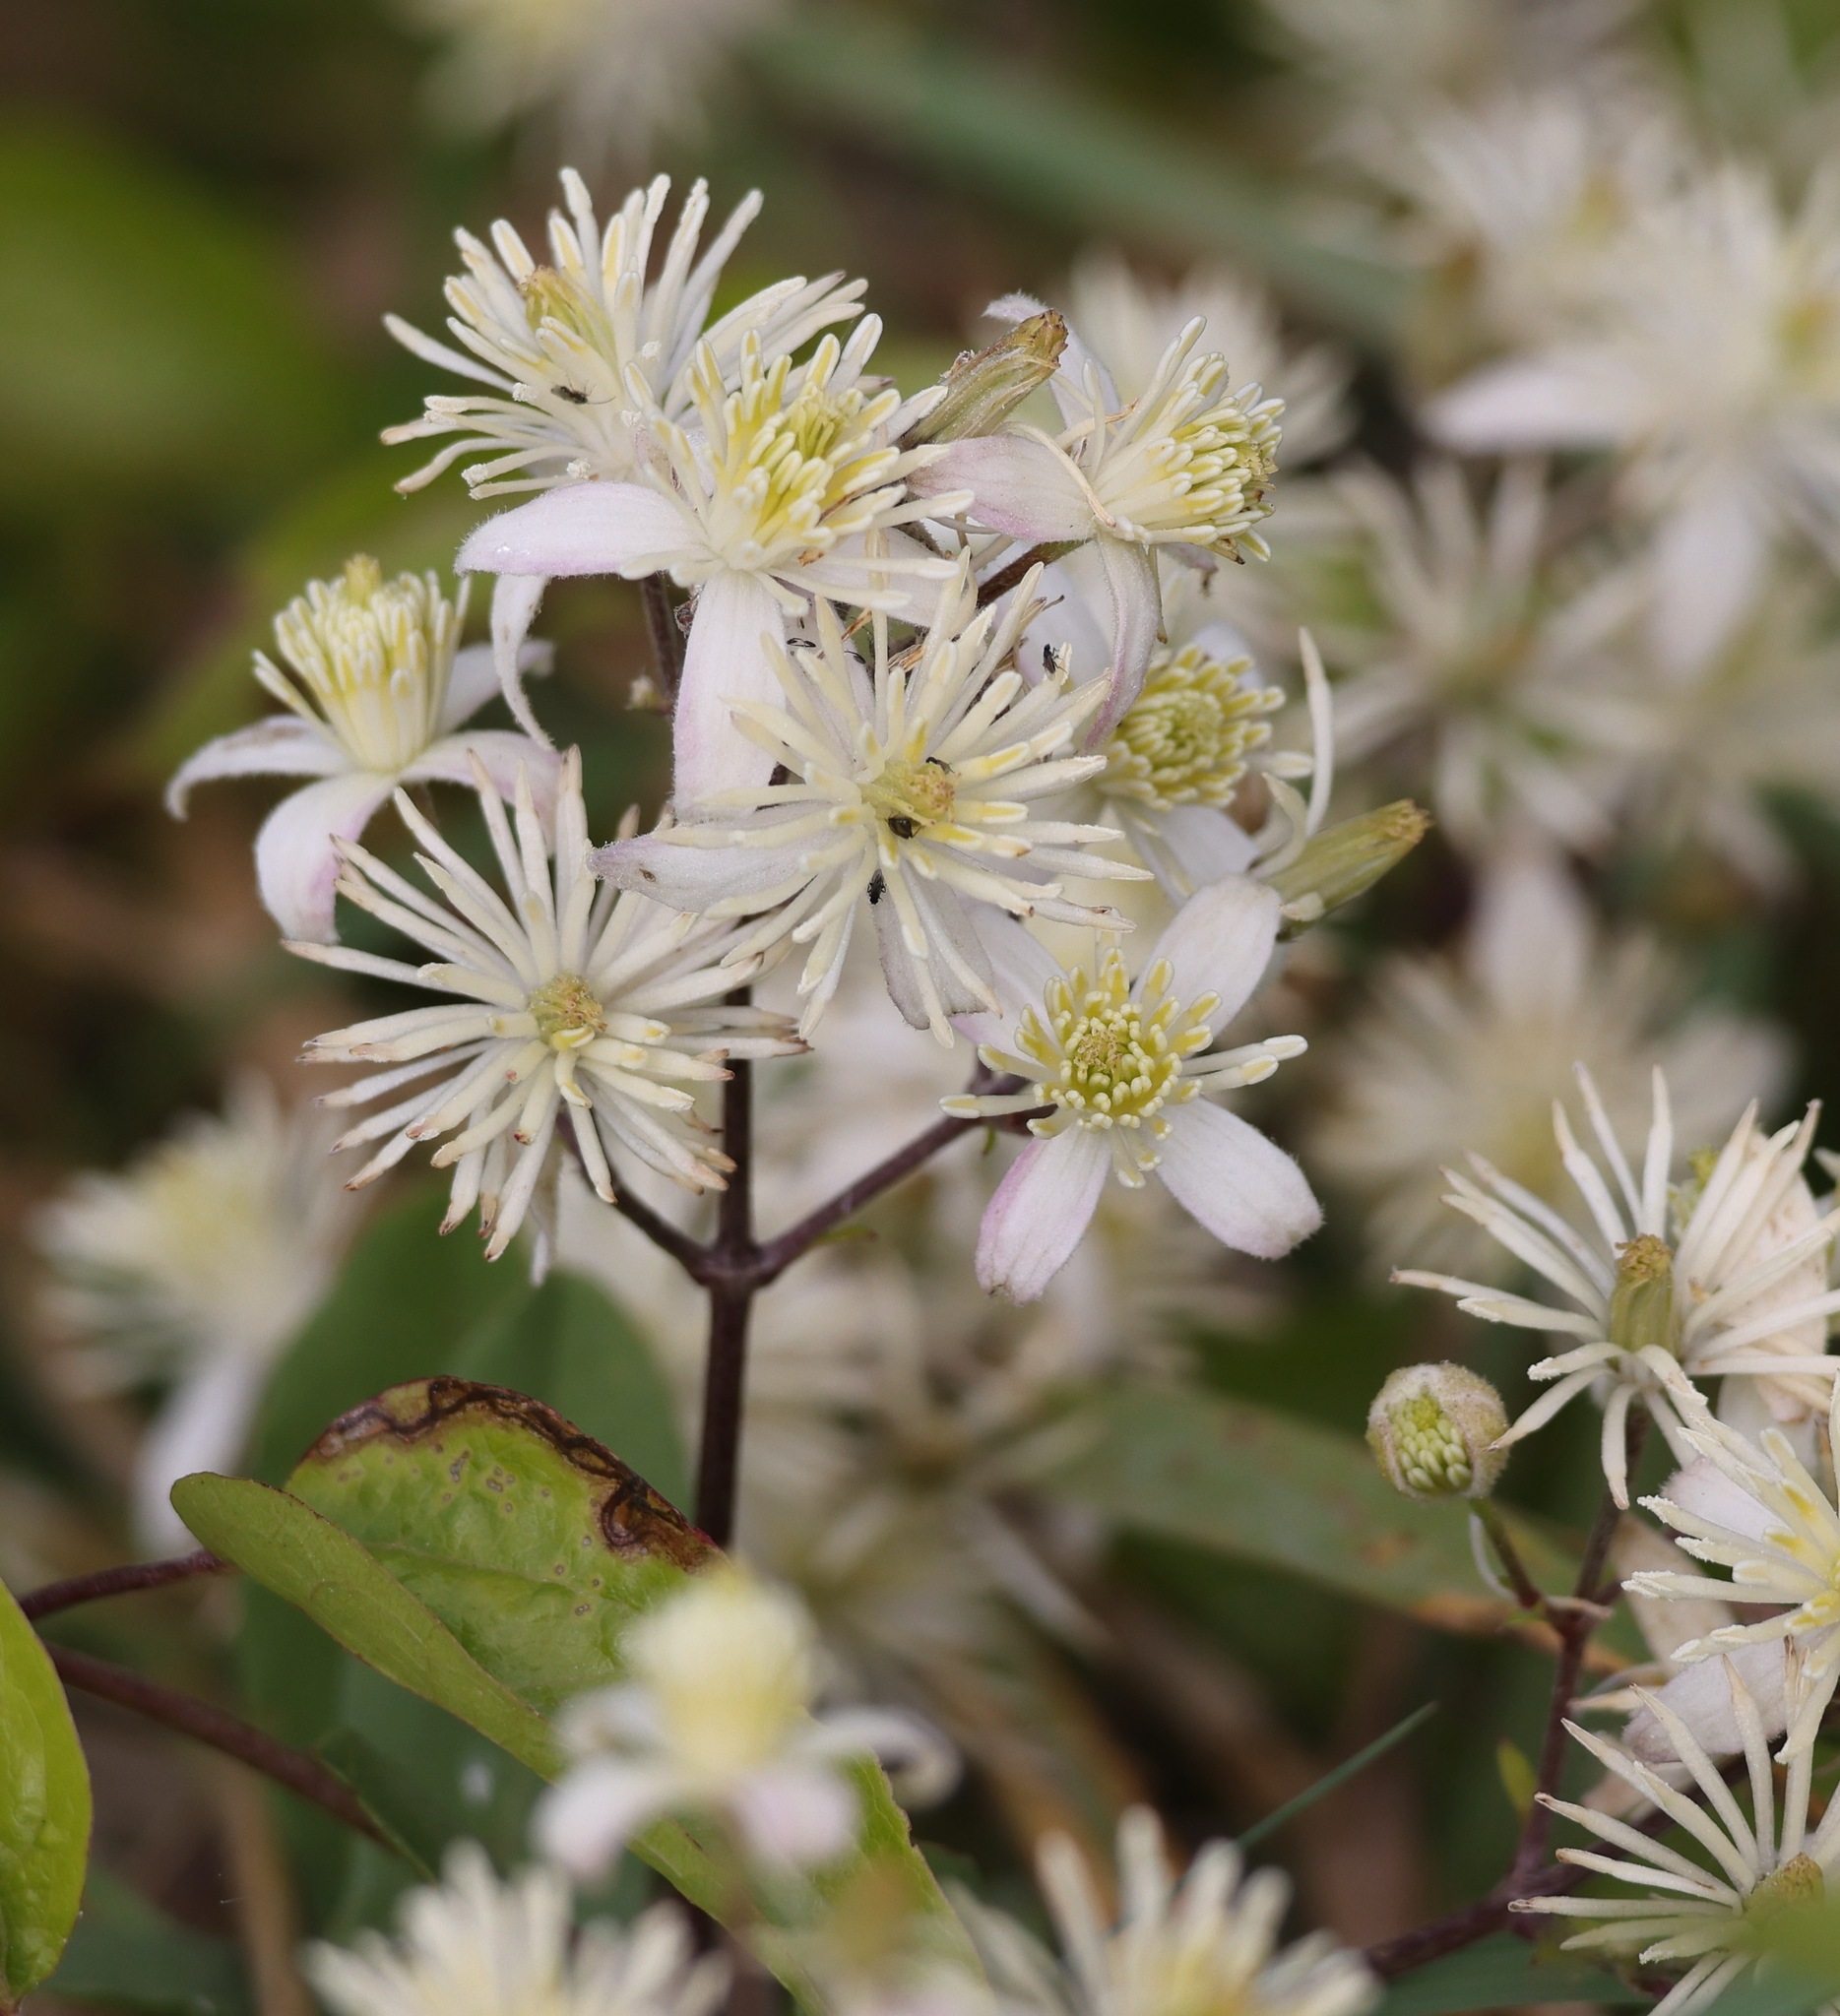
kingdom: Plantae
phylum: Tracheophyta
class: Magnoliopsida
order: Ranunculales
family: Ranunculaceae
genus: Clematis
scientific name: Clematis vitalba
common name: Evergreen clematis
